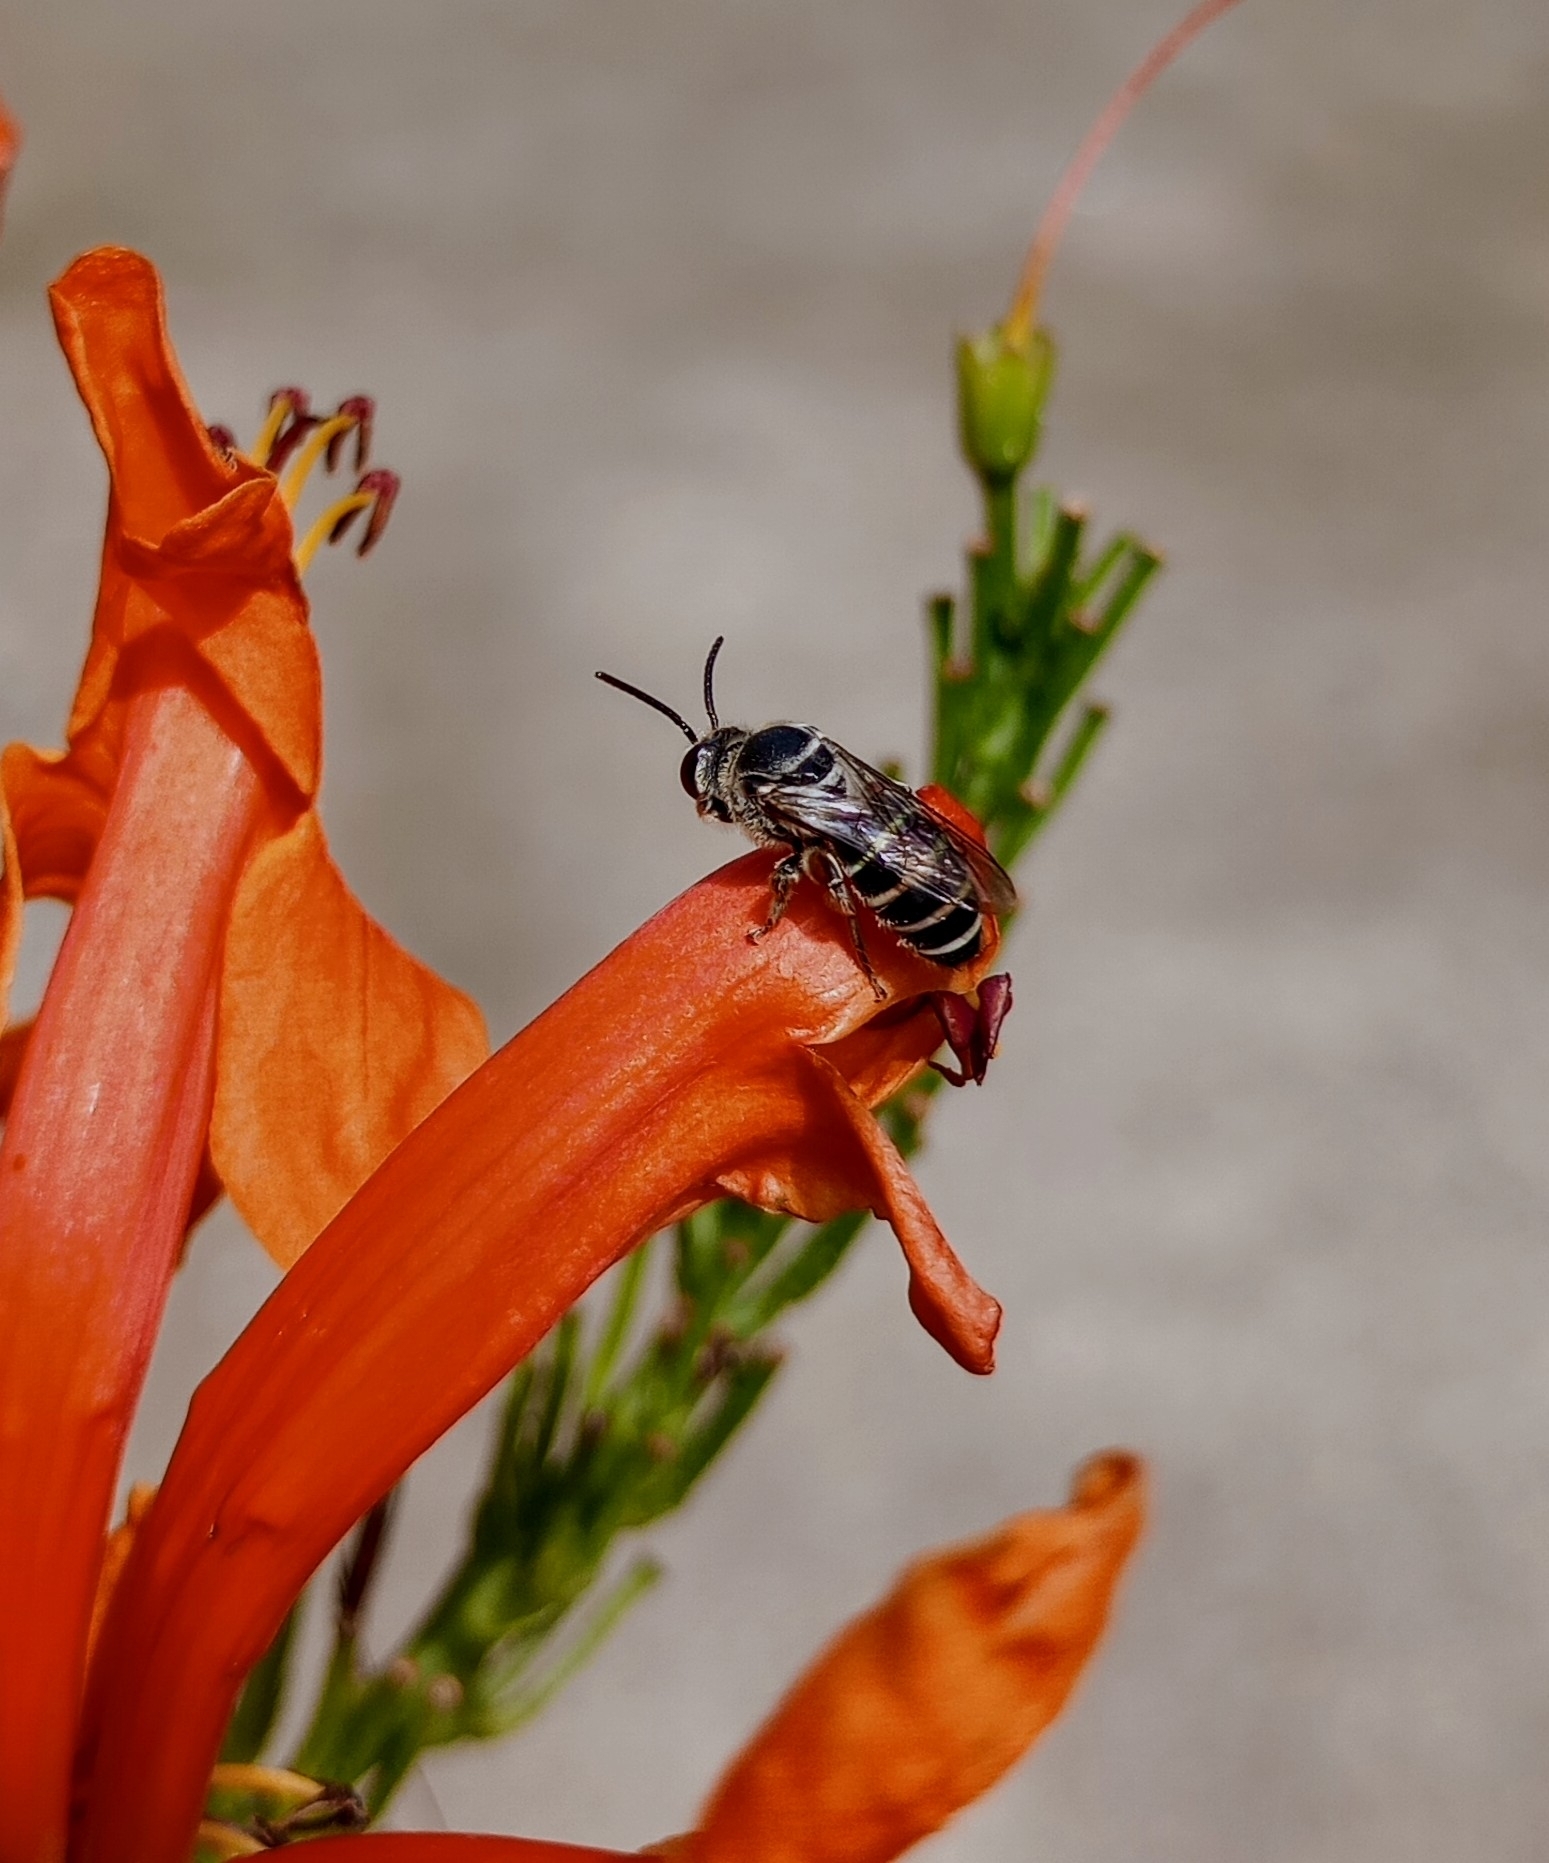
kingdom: Animalia
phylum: Arthropoda
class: Insecta
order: Hymenoptera
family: Halictidae
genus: Nomia
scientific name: Nomia westwoodi
